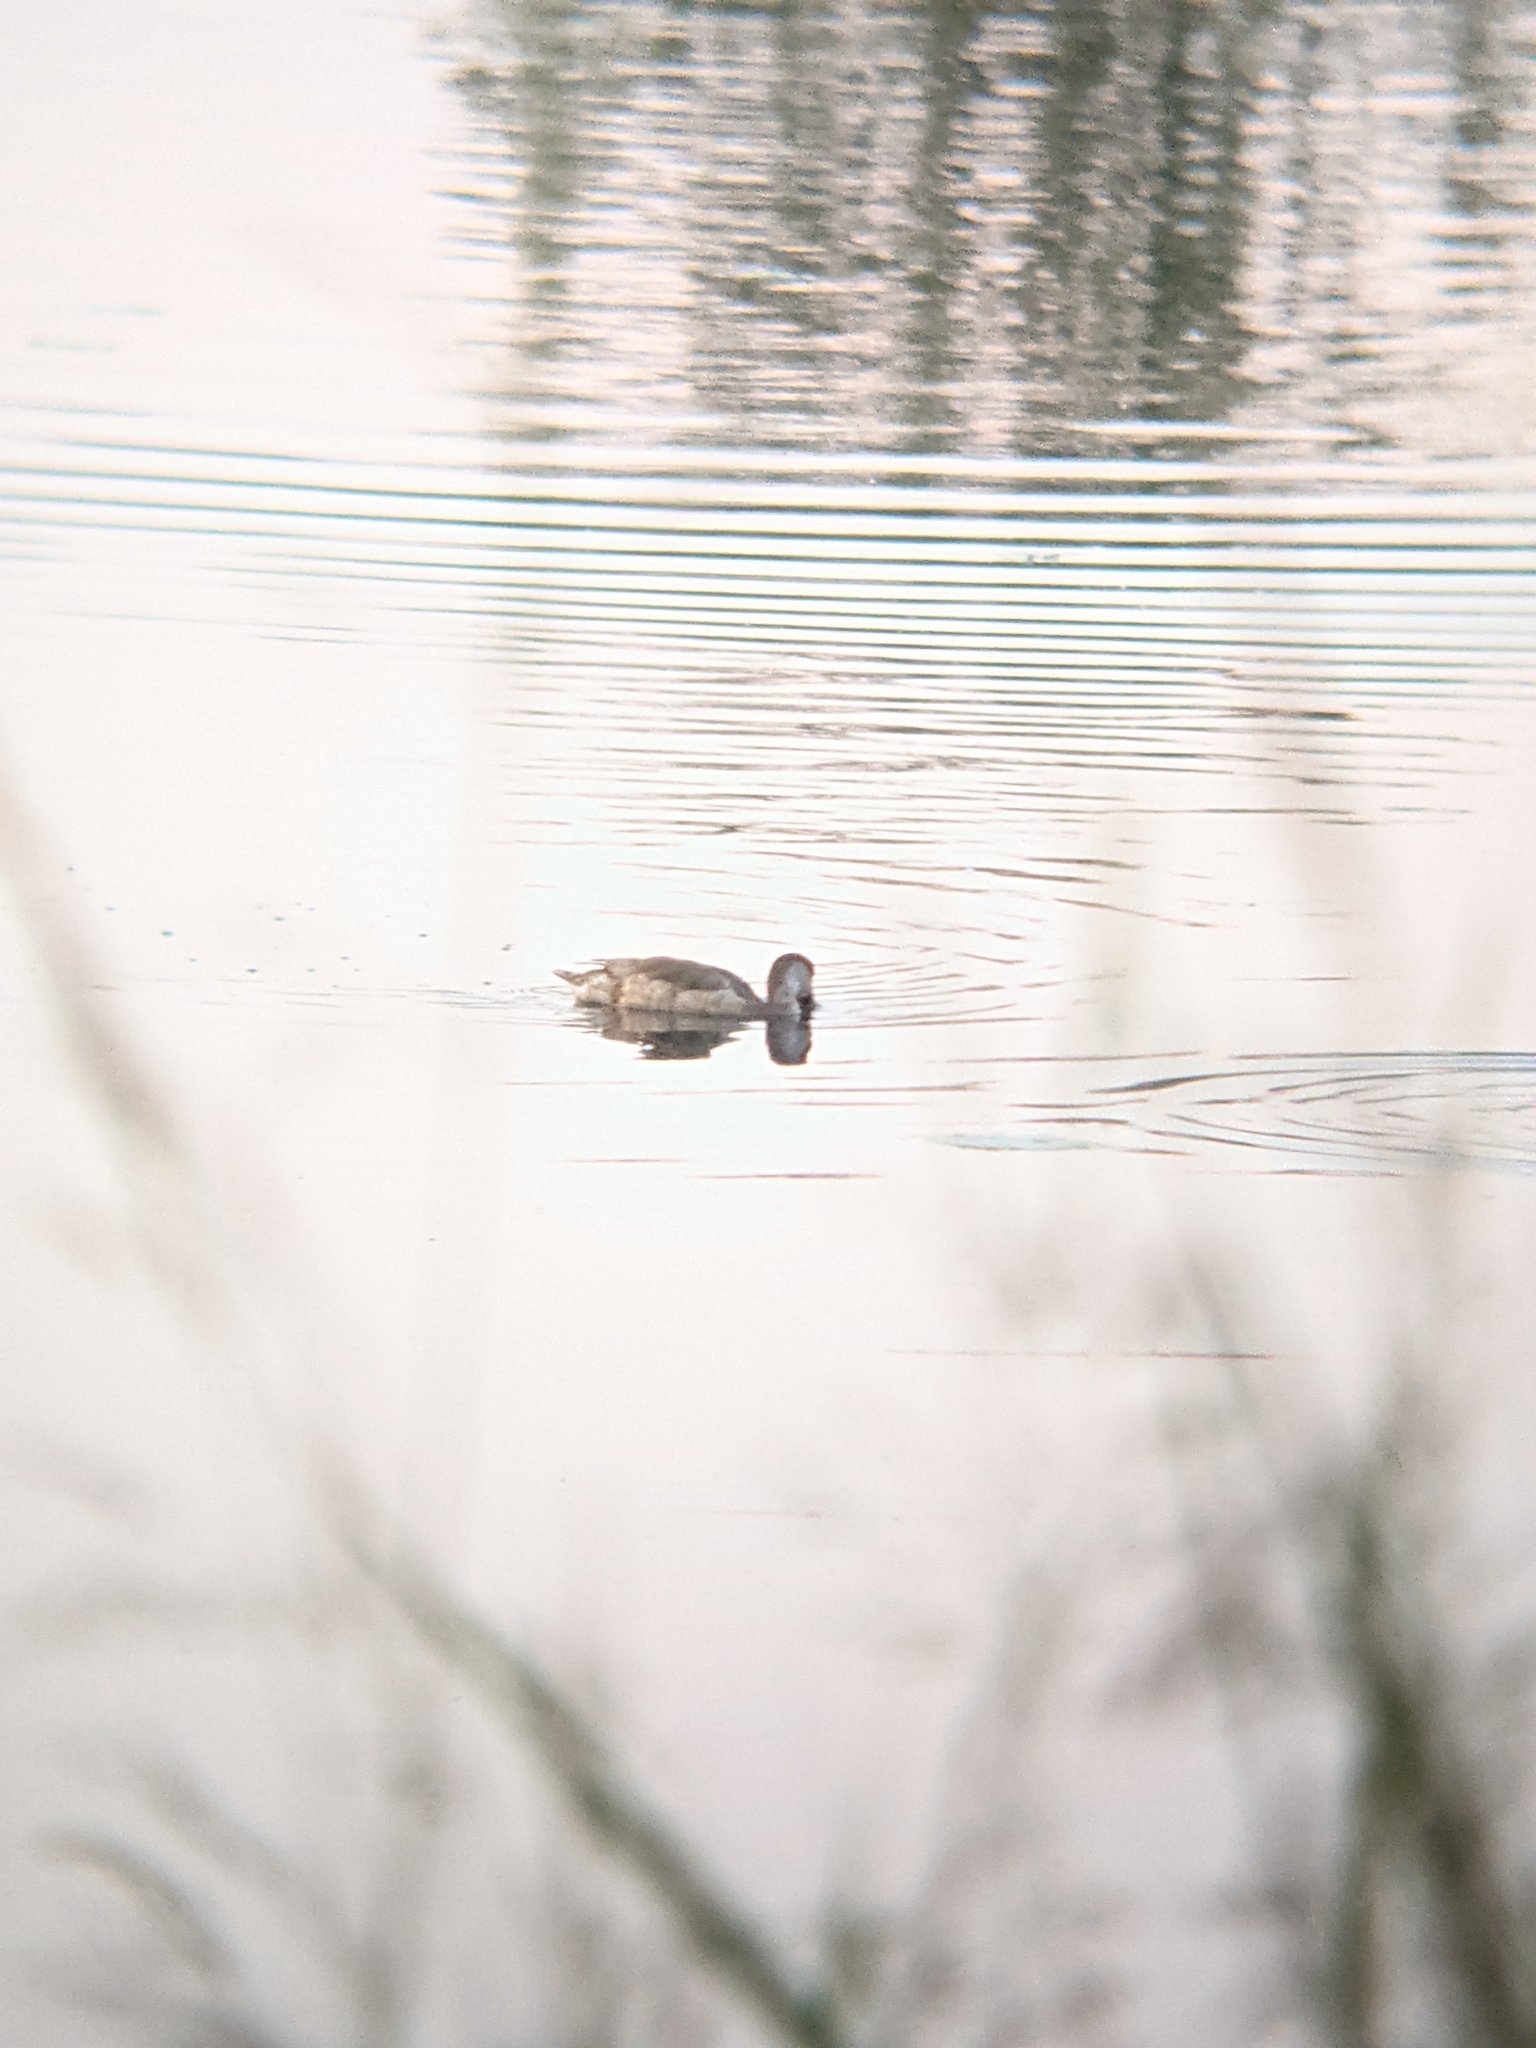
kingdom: Animalia
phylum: Chordata
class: Aves
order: Anseriformes
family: Anatidae
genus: Netta
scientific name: Netta rufina
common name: Red-crested pochard
